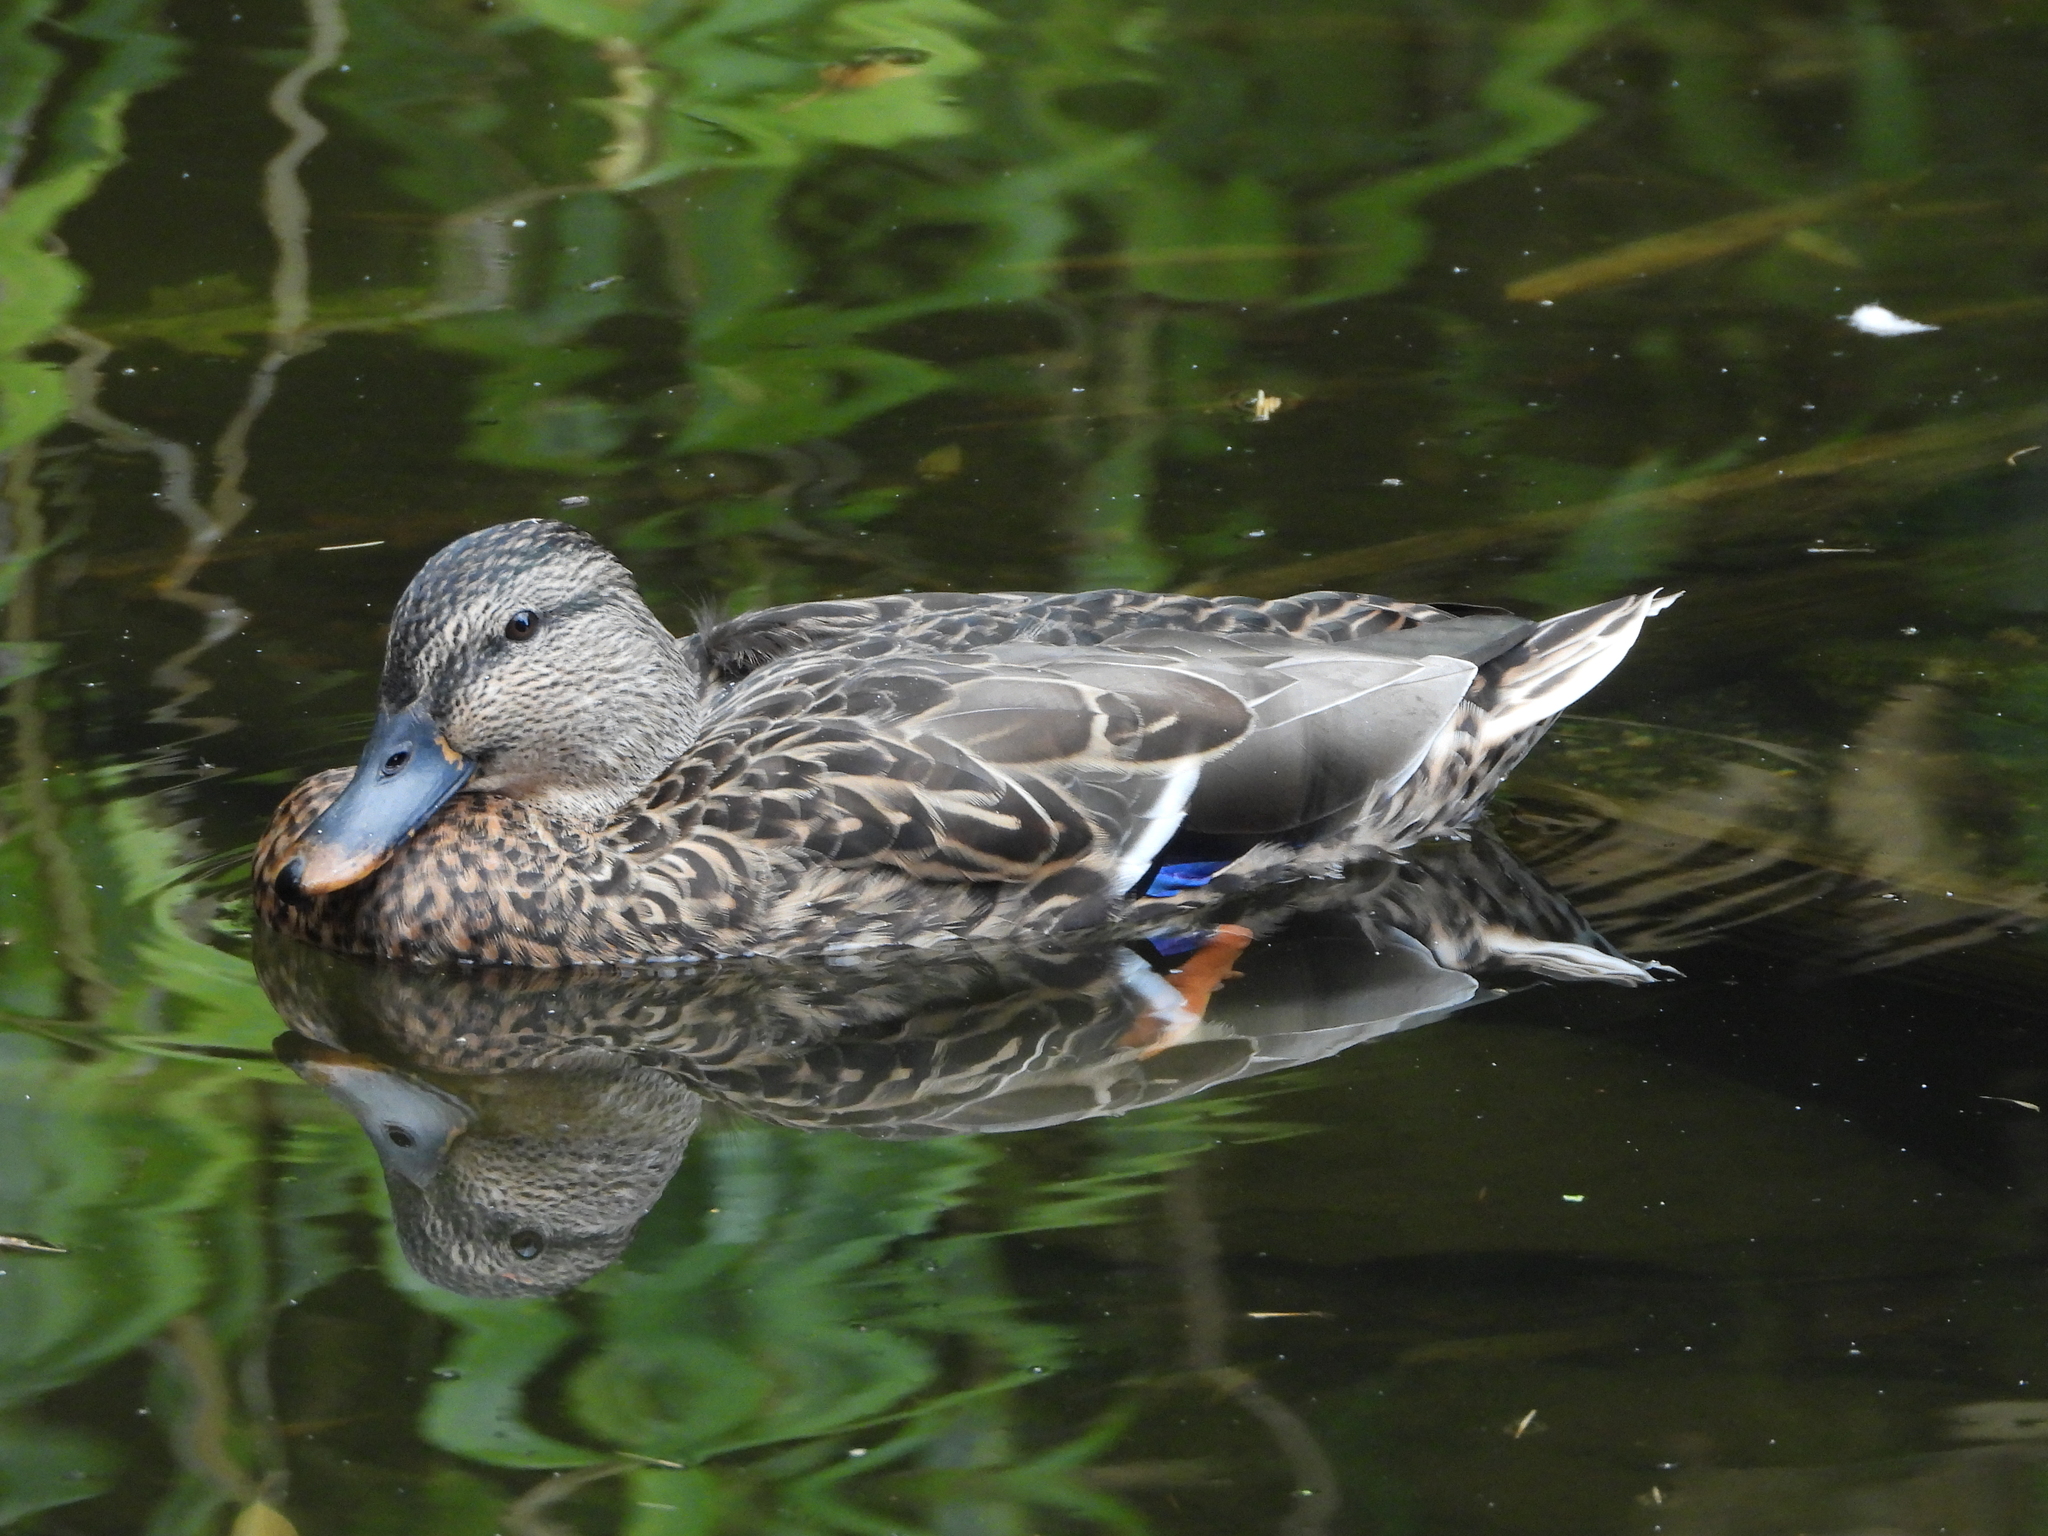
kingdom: Animalia
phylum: Chordata
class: Aves
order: Anseriformes
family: Anatidae
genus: Anas
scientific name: Anas platyrhynchos
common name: Mallard
